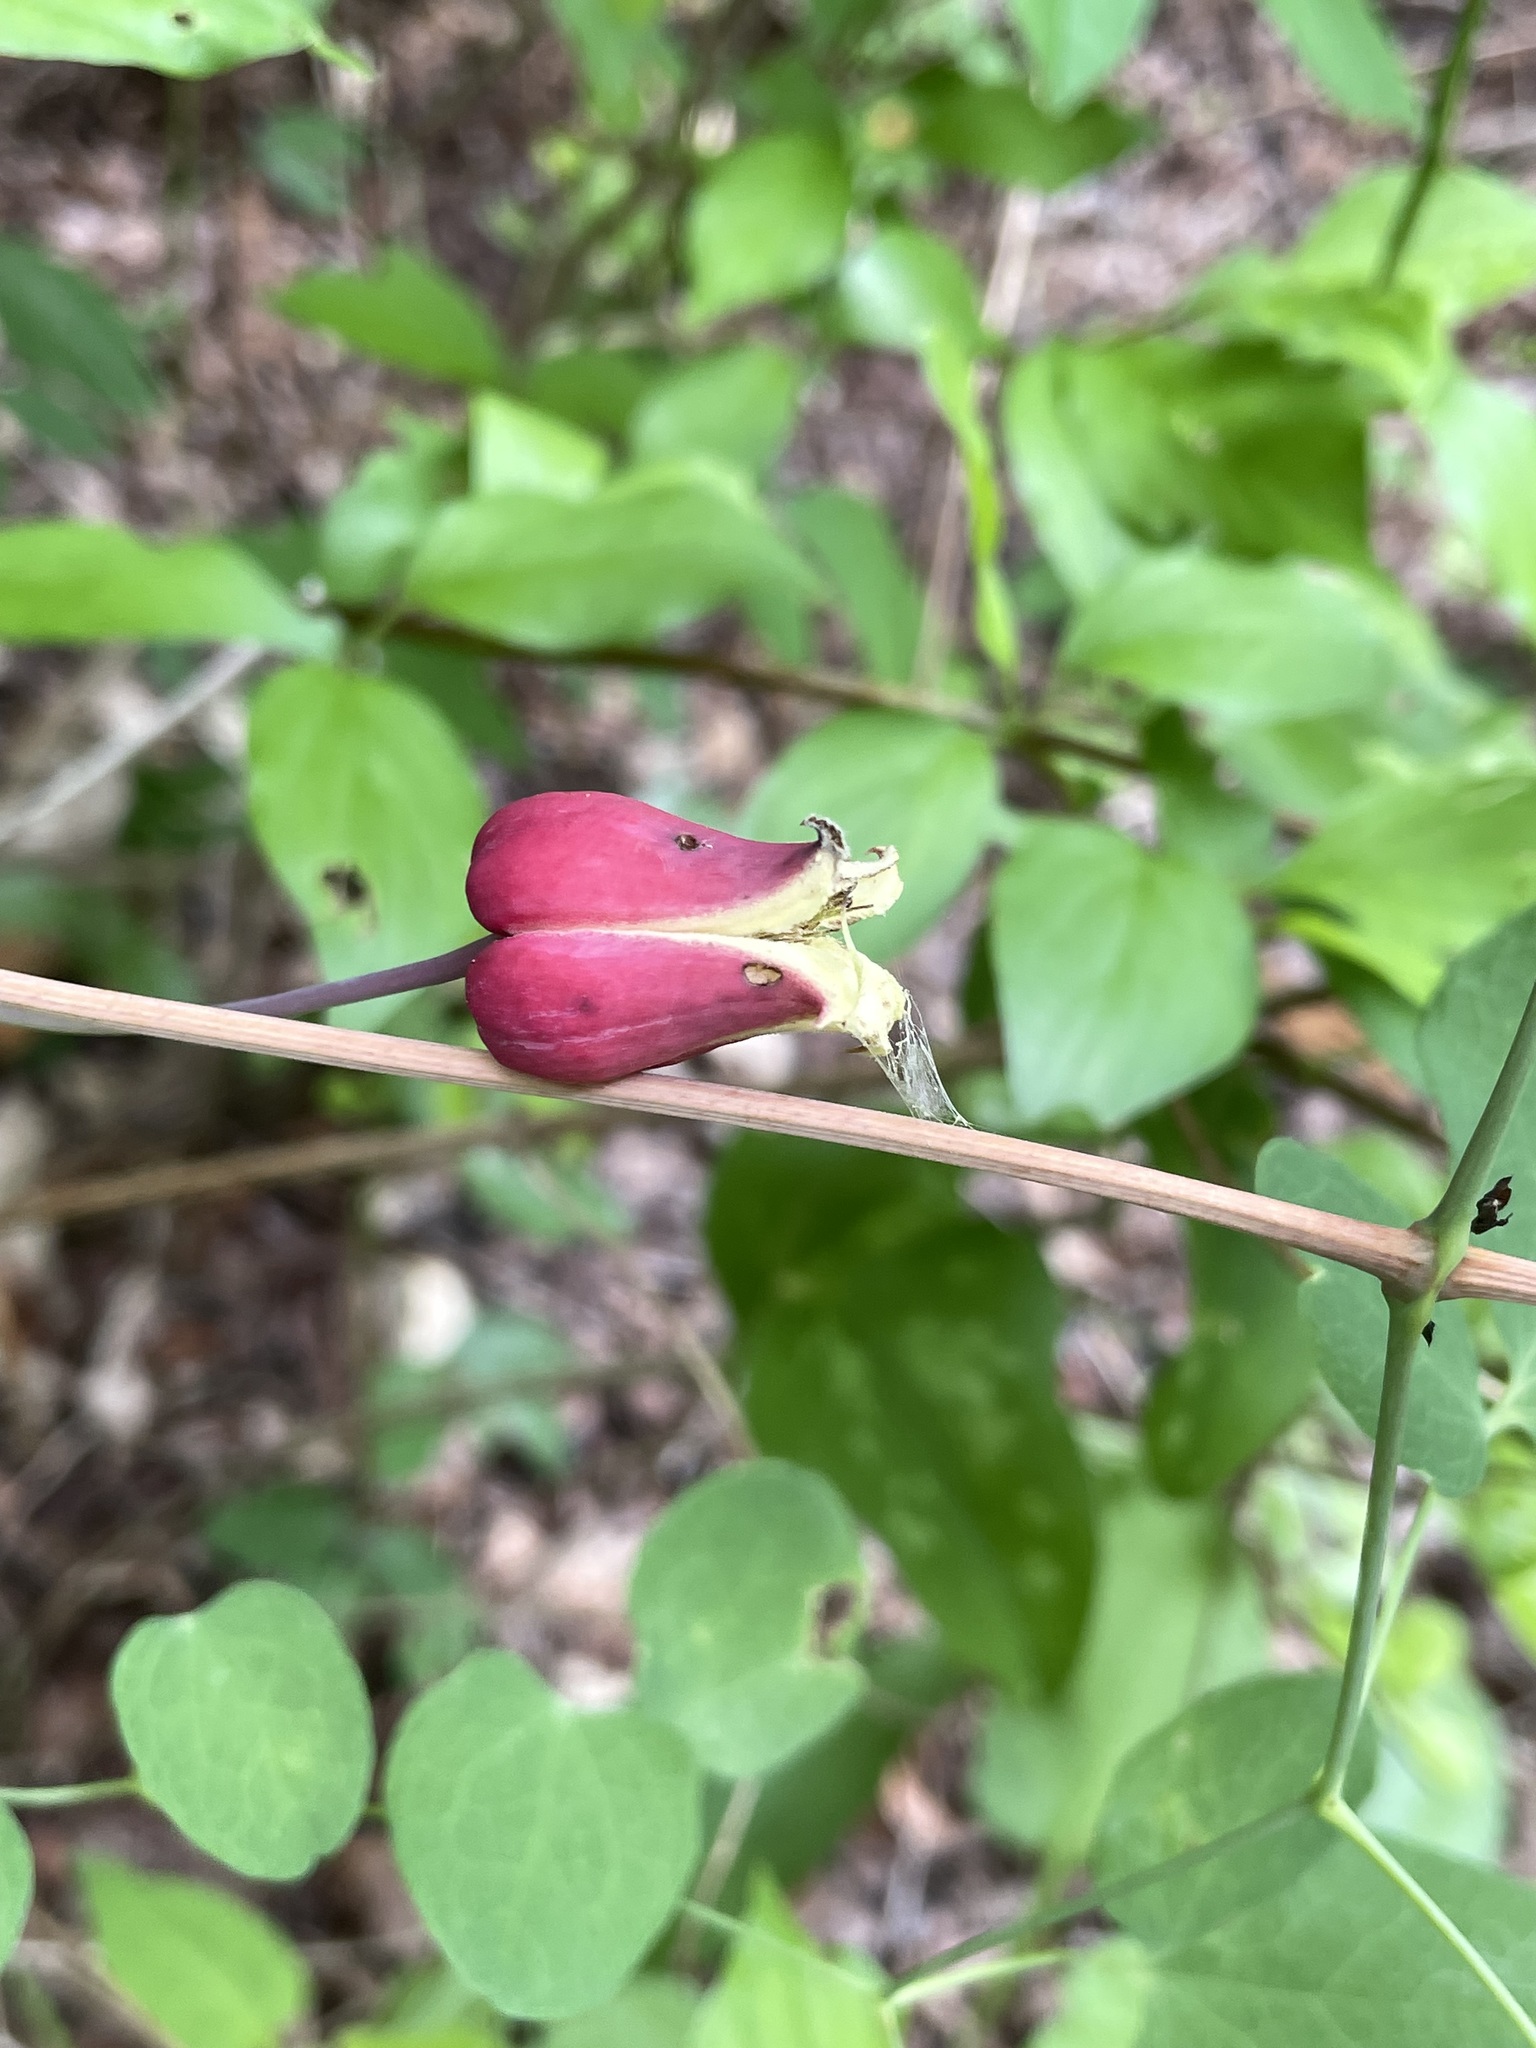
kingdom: Plantae
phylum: Tracheophyta
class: Magnoliopsida
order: Ranunculales
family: Ranunculaceae
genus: Clematis
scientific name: Clematis texensis
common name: Crimson clematis
